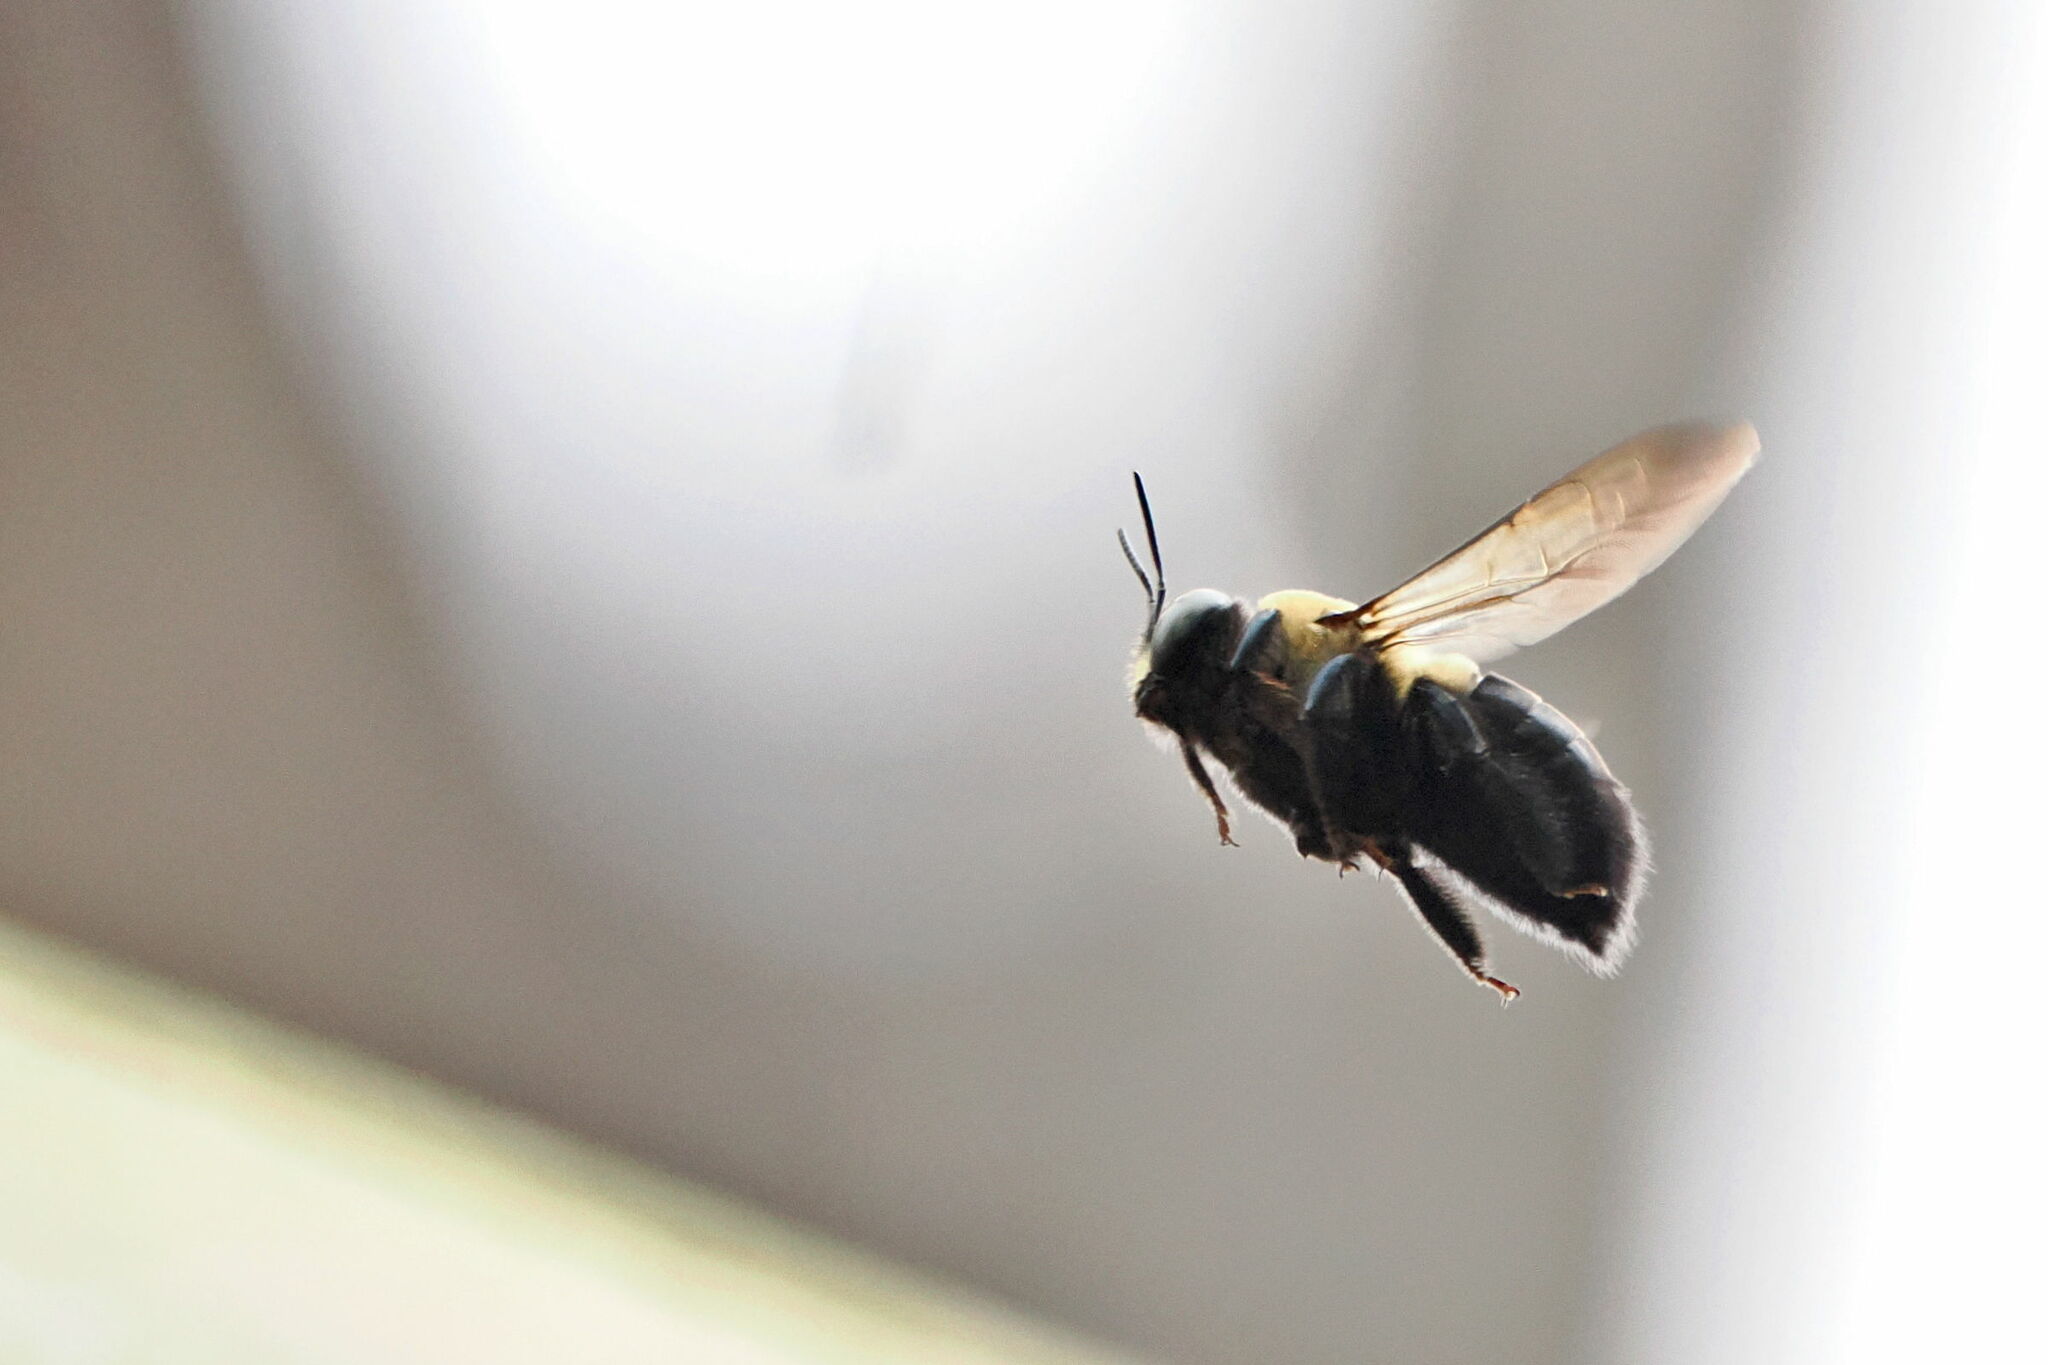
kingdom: Animalia
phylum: Arthropoda
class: Insecta
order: Hymenoptera
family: Apidae
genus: Xylocopa
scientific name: Xylocopa virginica
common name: Carpenter bee
